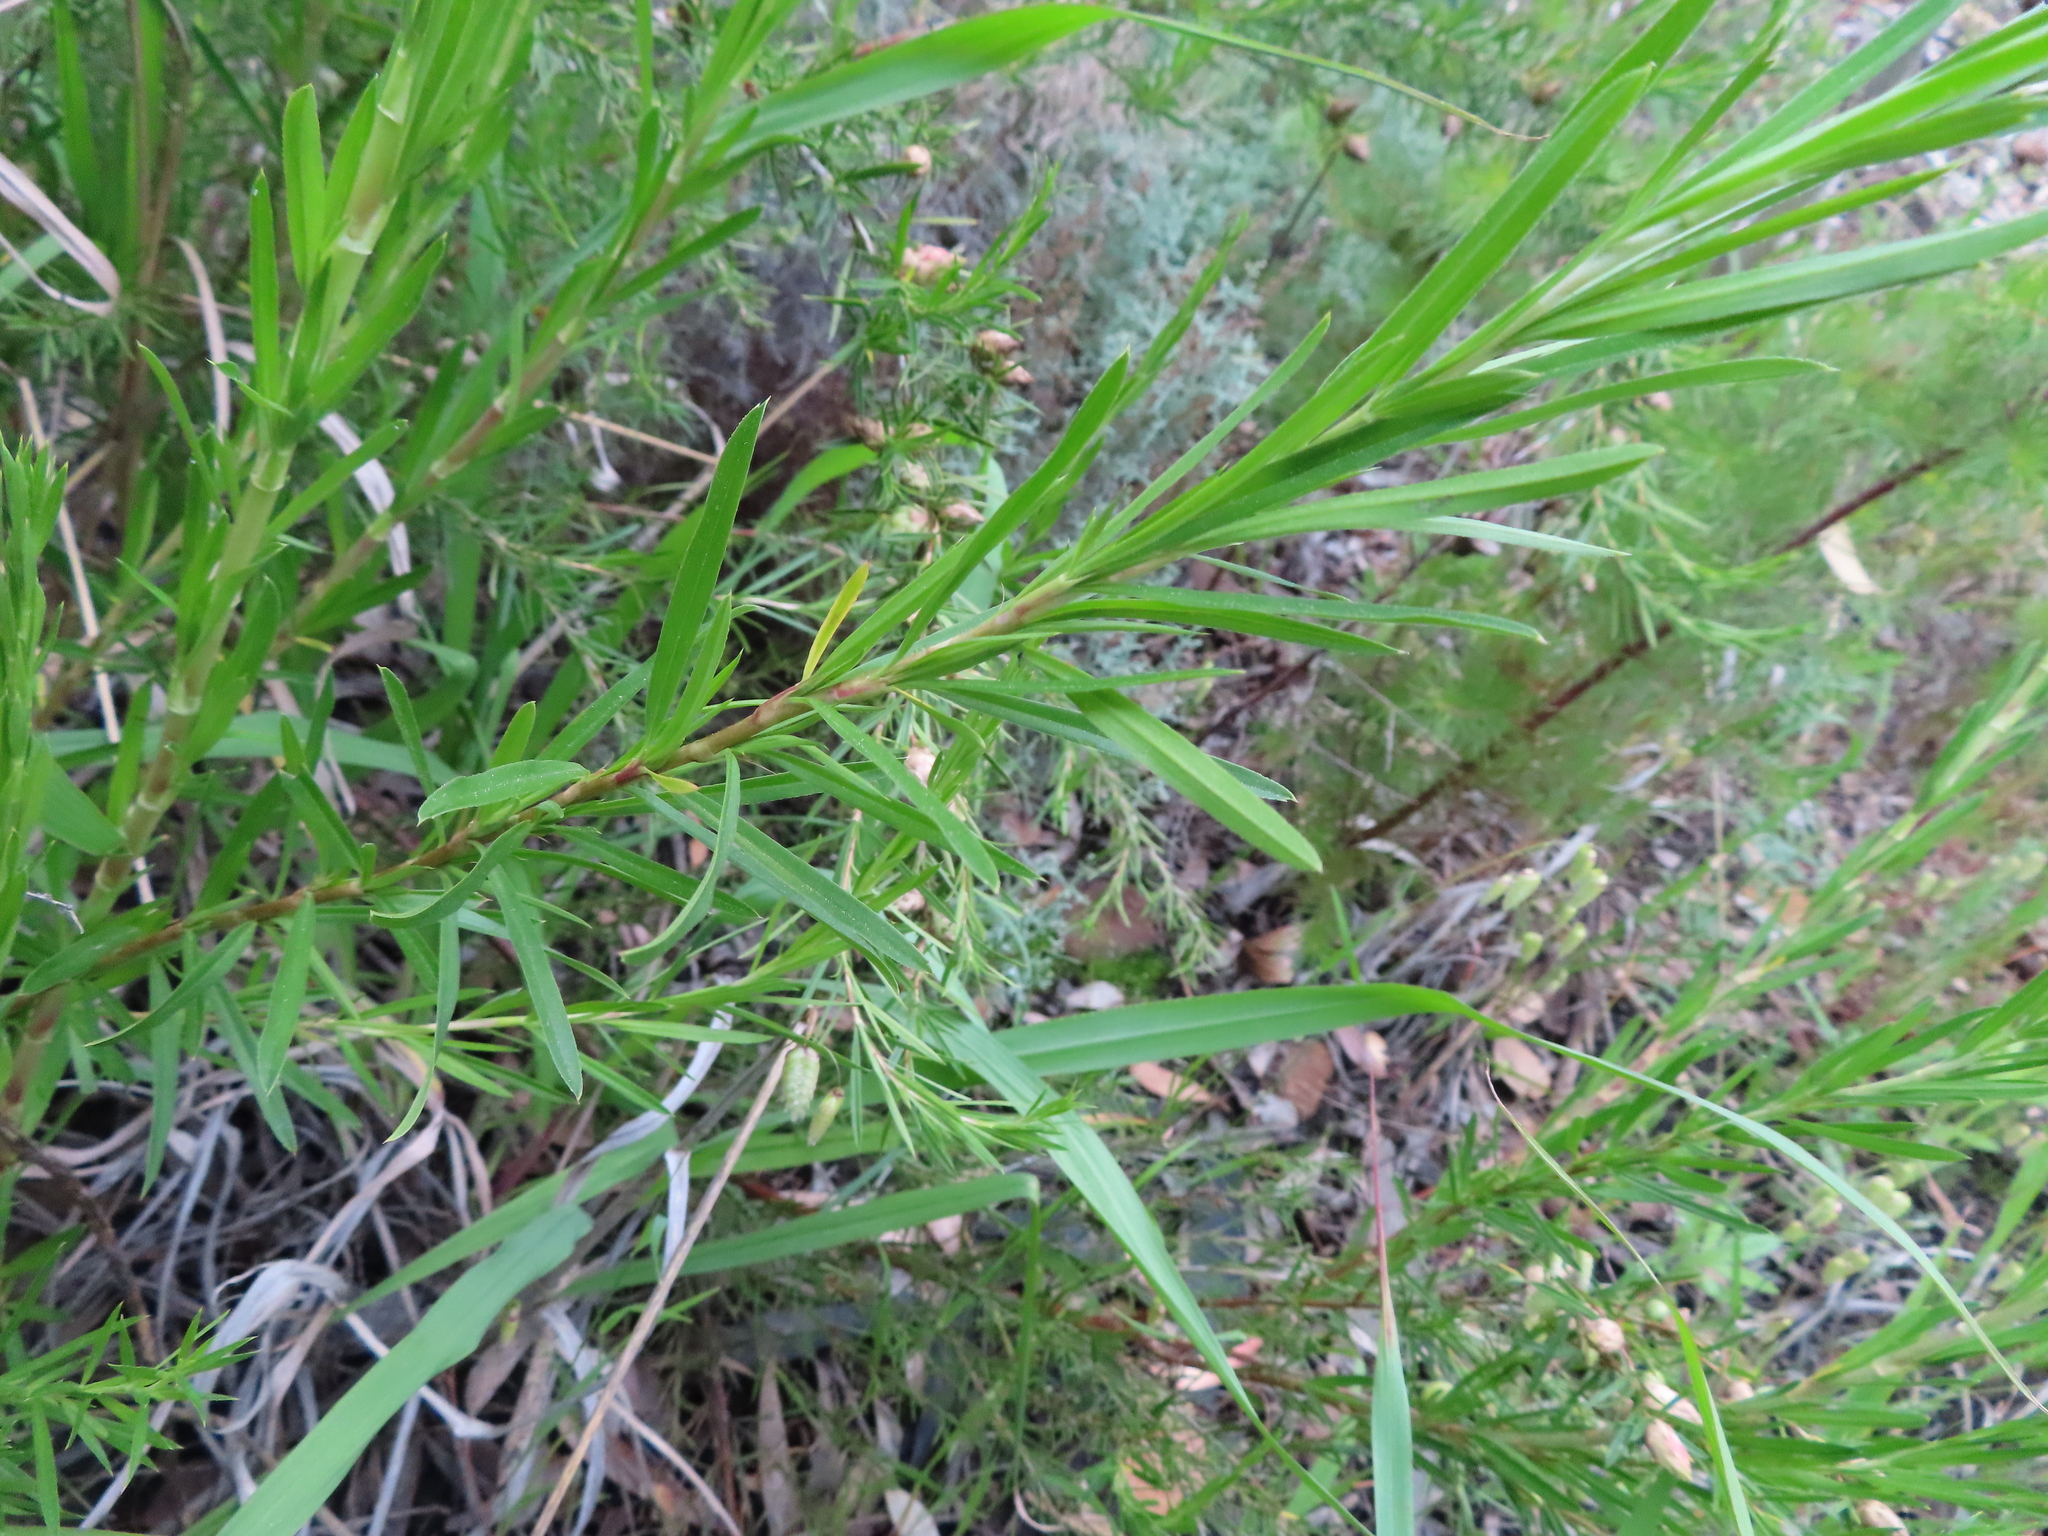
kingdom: Plantae
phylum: Tracheophyta
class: Magnoliopsida
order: Rosales
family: Rosaceae
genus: Cliffortia
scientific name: Cliffortia strobilifera
